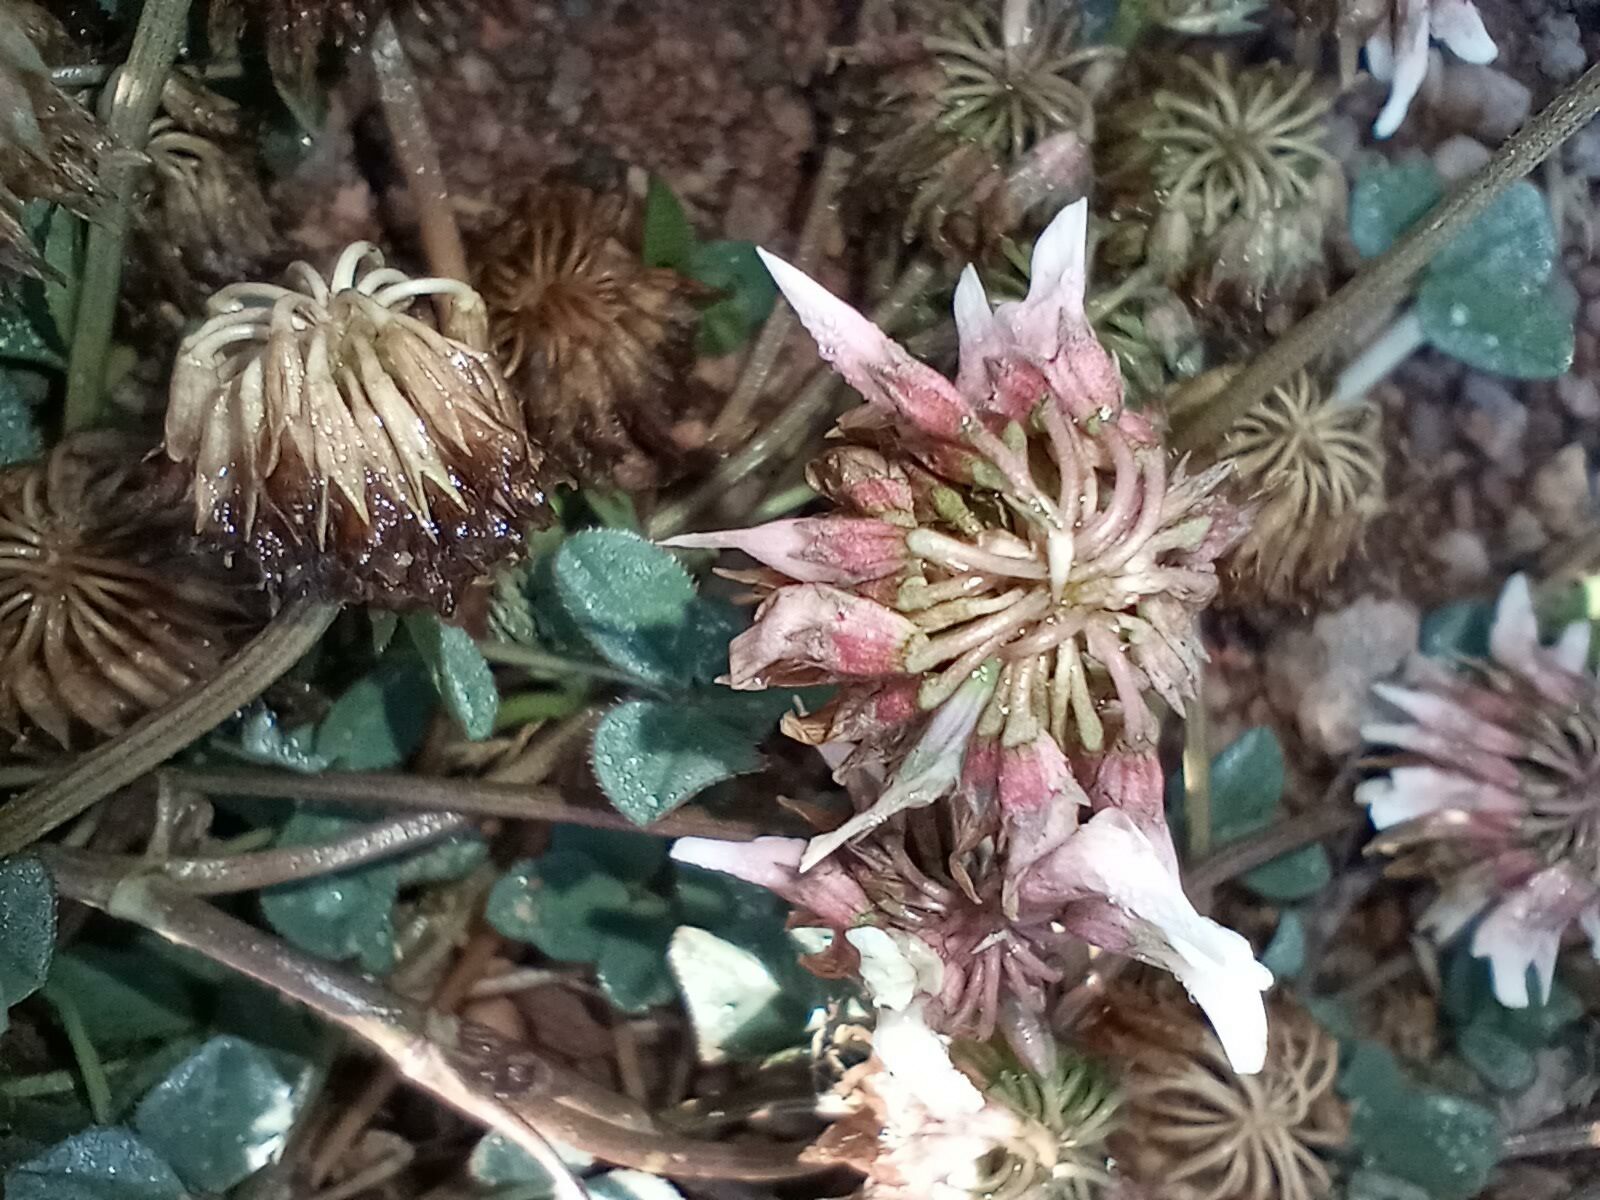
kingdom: Plantae
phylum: Tracheophyta
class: Magnoliopsida
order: Fabales
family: Fabaceae
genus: Trifolium
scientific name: Trifolium repens
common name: White clover
